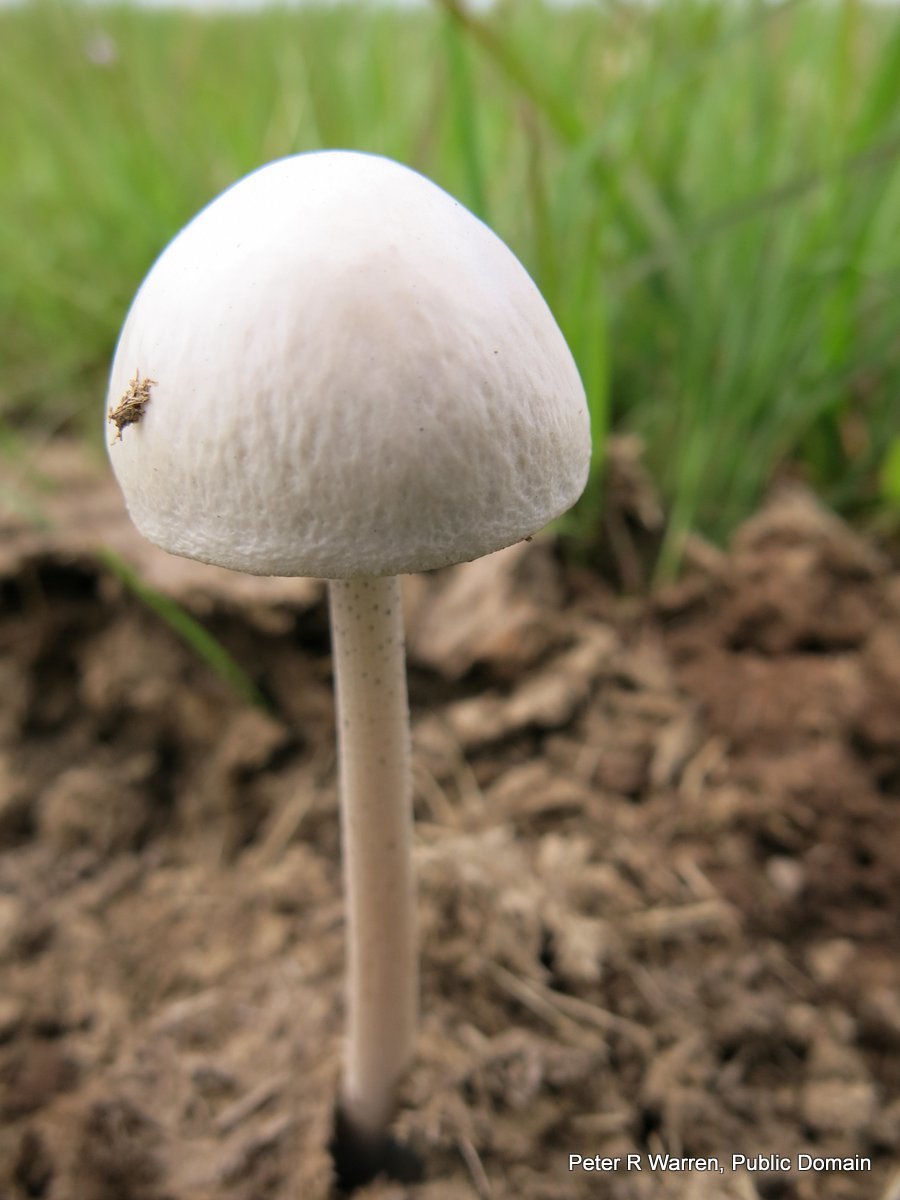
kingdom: Fungi
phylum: Basidiomycota
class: Agaricomycetes
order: Agaricales
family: Bolbitiaceae
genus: Panaeolus
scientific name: Panaeolus antillarum
